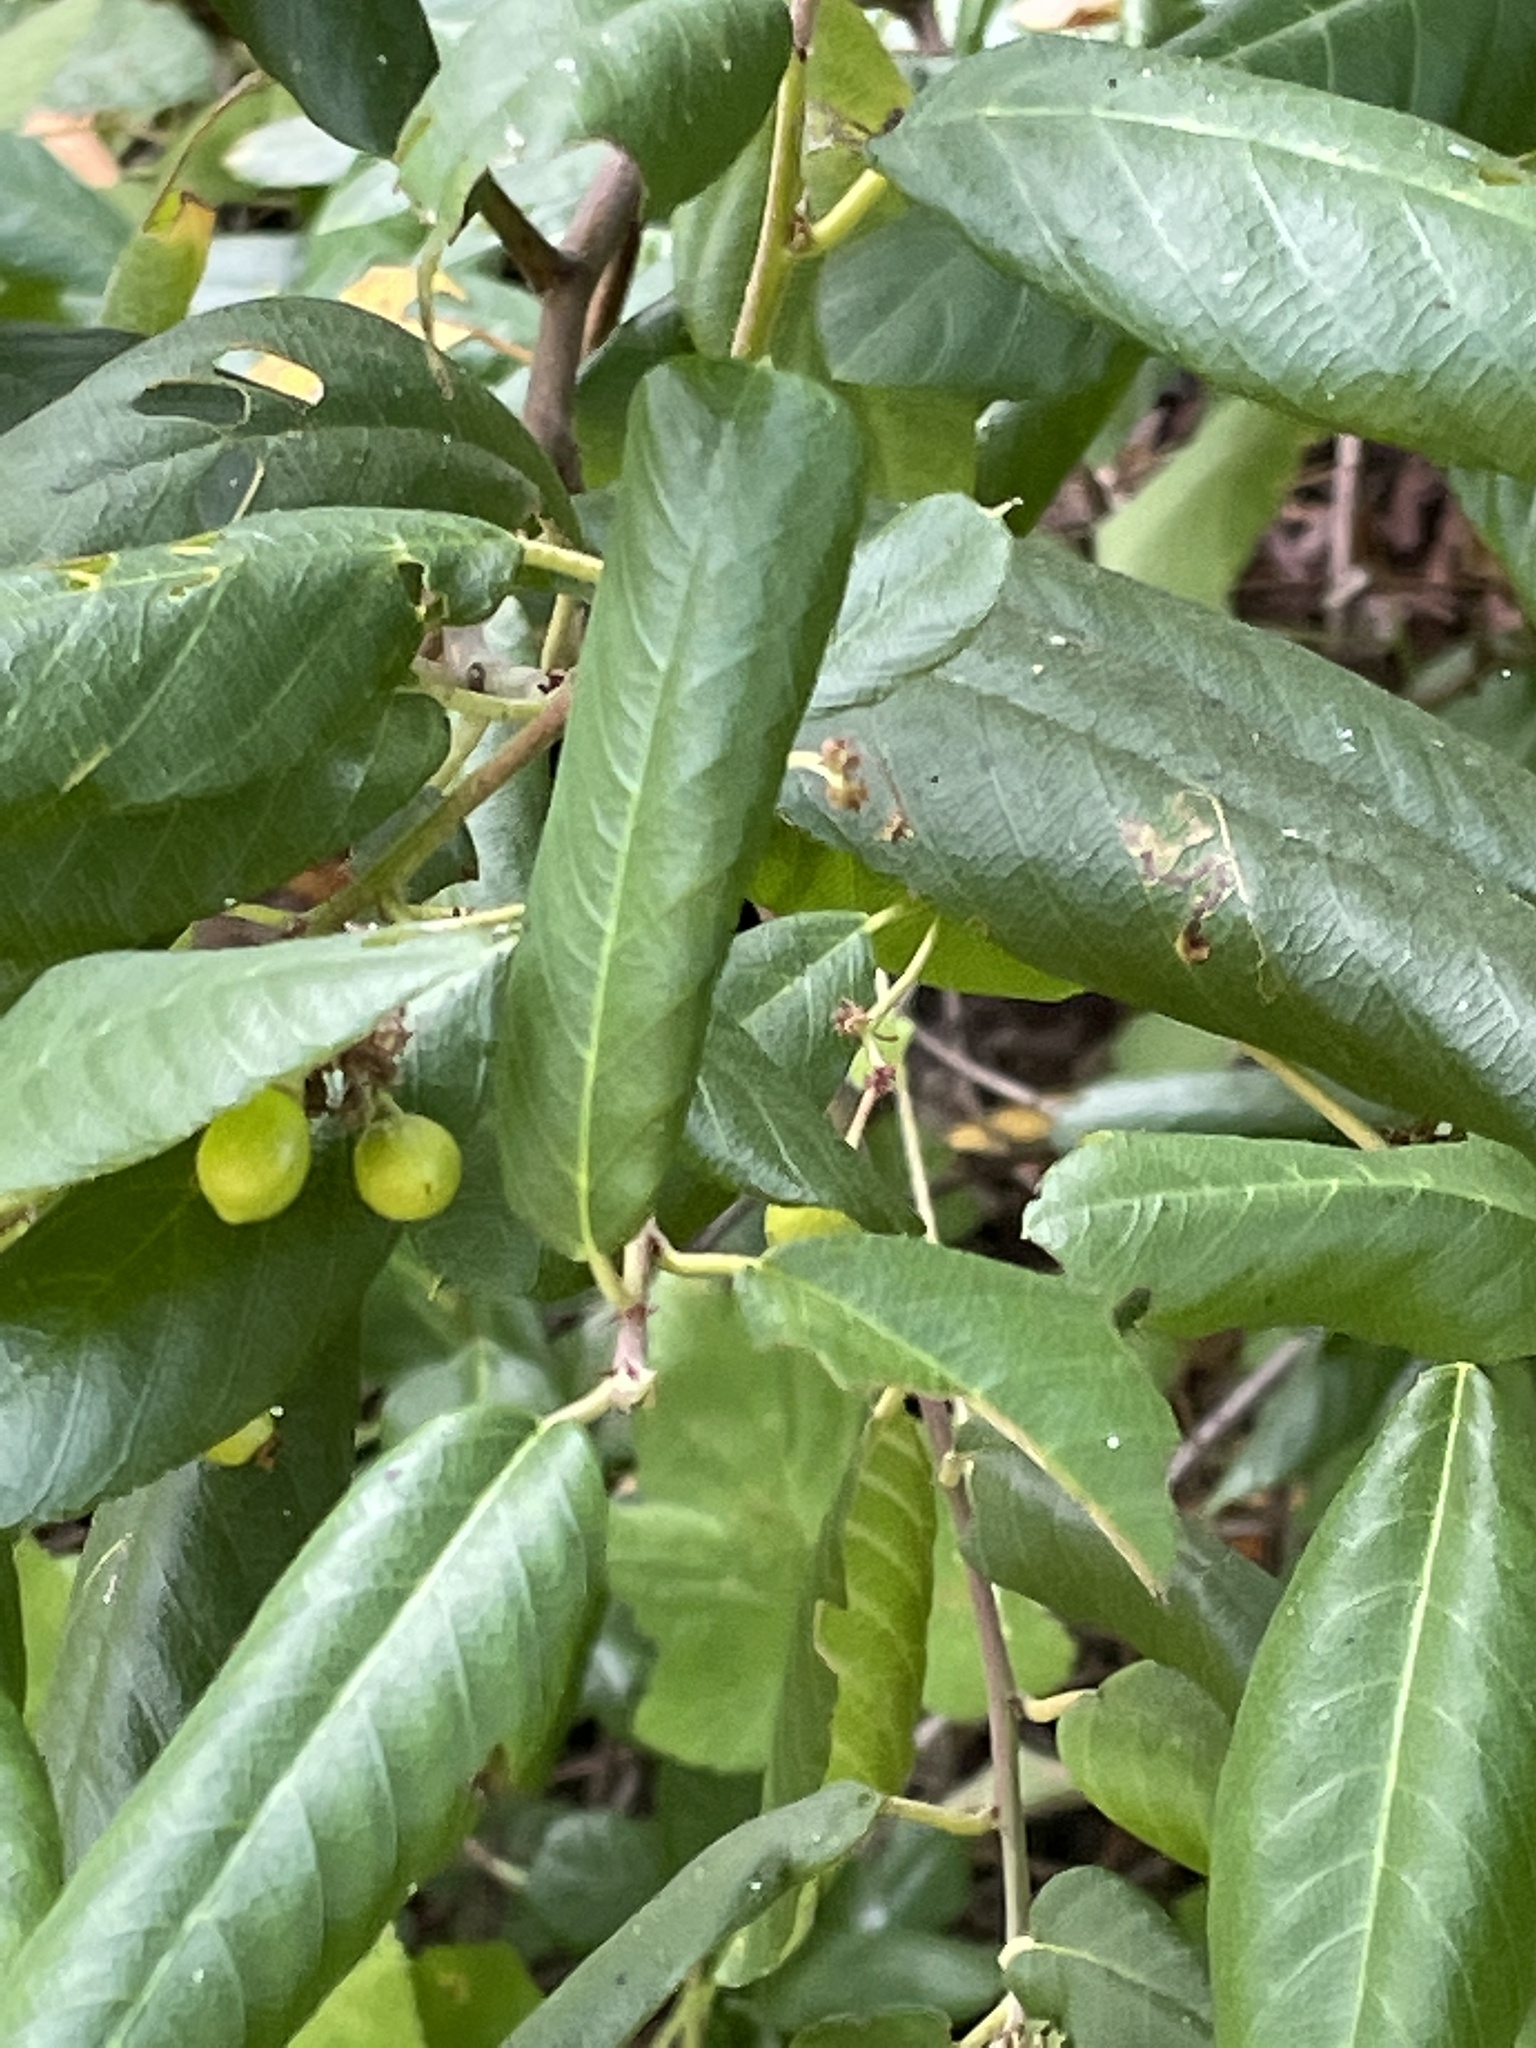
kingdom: Plantae
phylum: Tracheophyta
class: Magnoliopsida
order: Rosales
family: Rhamnaceae
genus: Frangula
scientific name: Frangula californica
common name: California buckthorn
